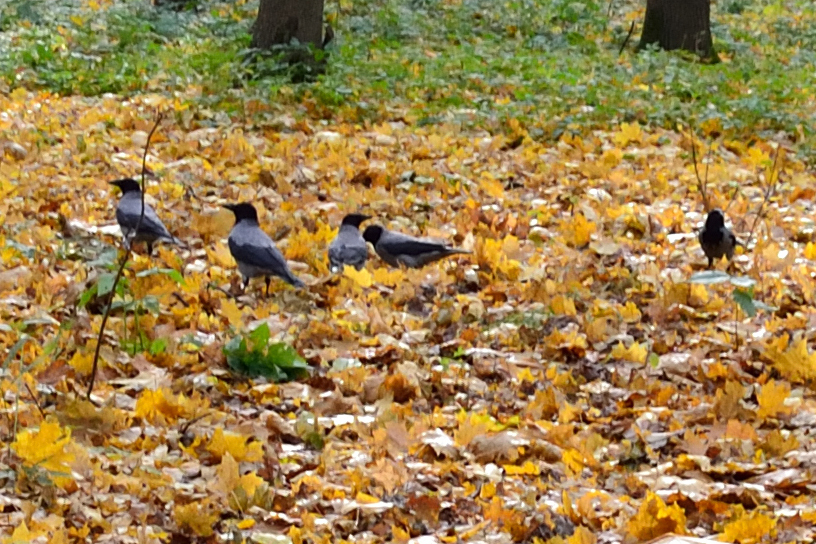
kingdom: Animalia
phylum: Chordata
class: Aves
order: Passeriformes
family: Corvidae
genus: Corvus
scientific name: Corvus cornix
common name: Hooded crow
